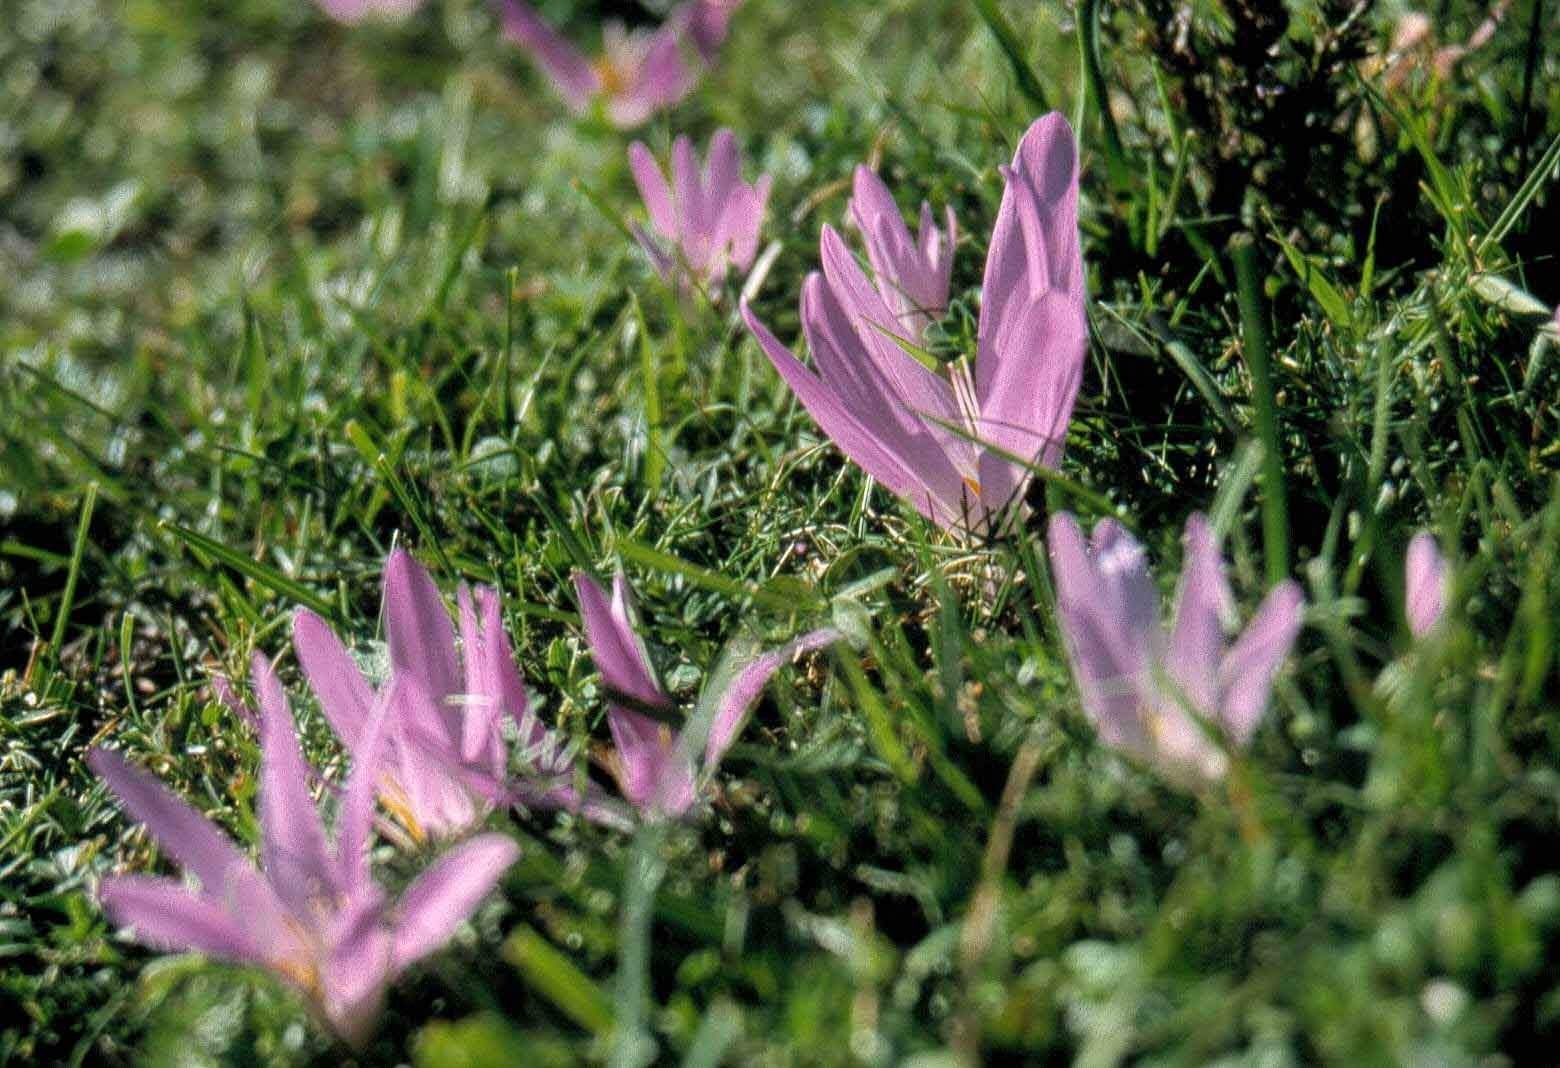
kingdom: Plantae
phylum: Tracheophyta
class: Liliopsida
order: Liliales
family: Colchicaceae
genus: Colchicum
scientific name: Colchicum montanum
